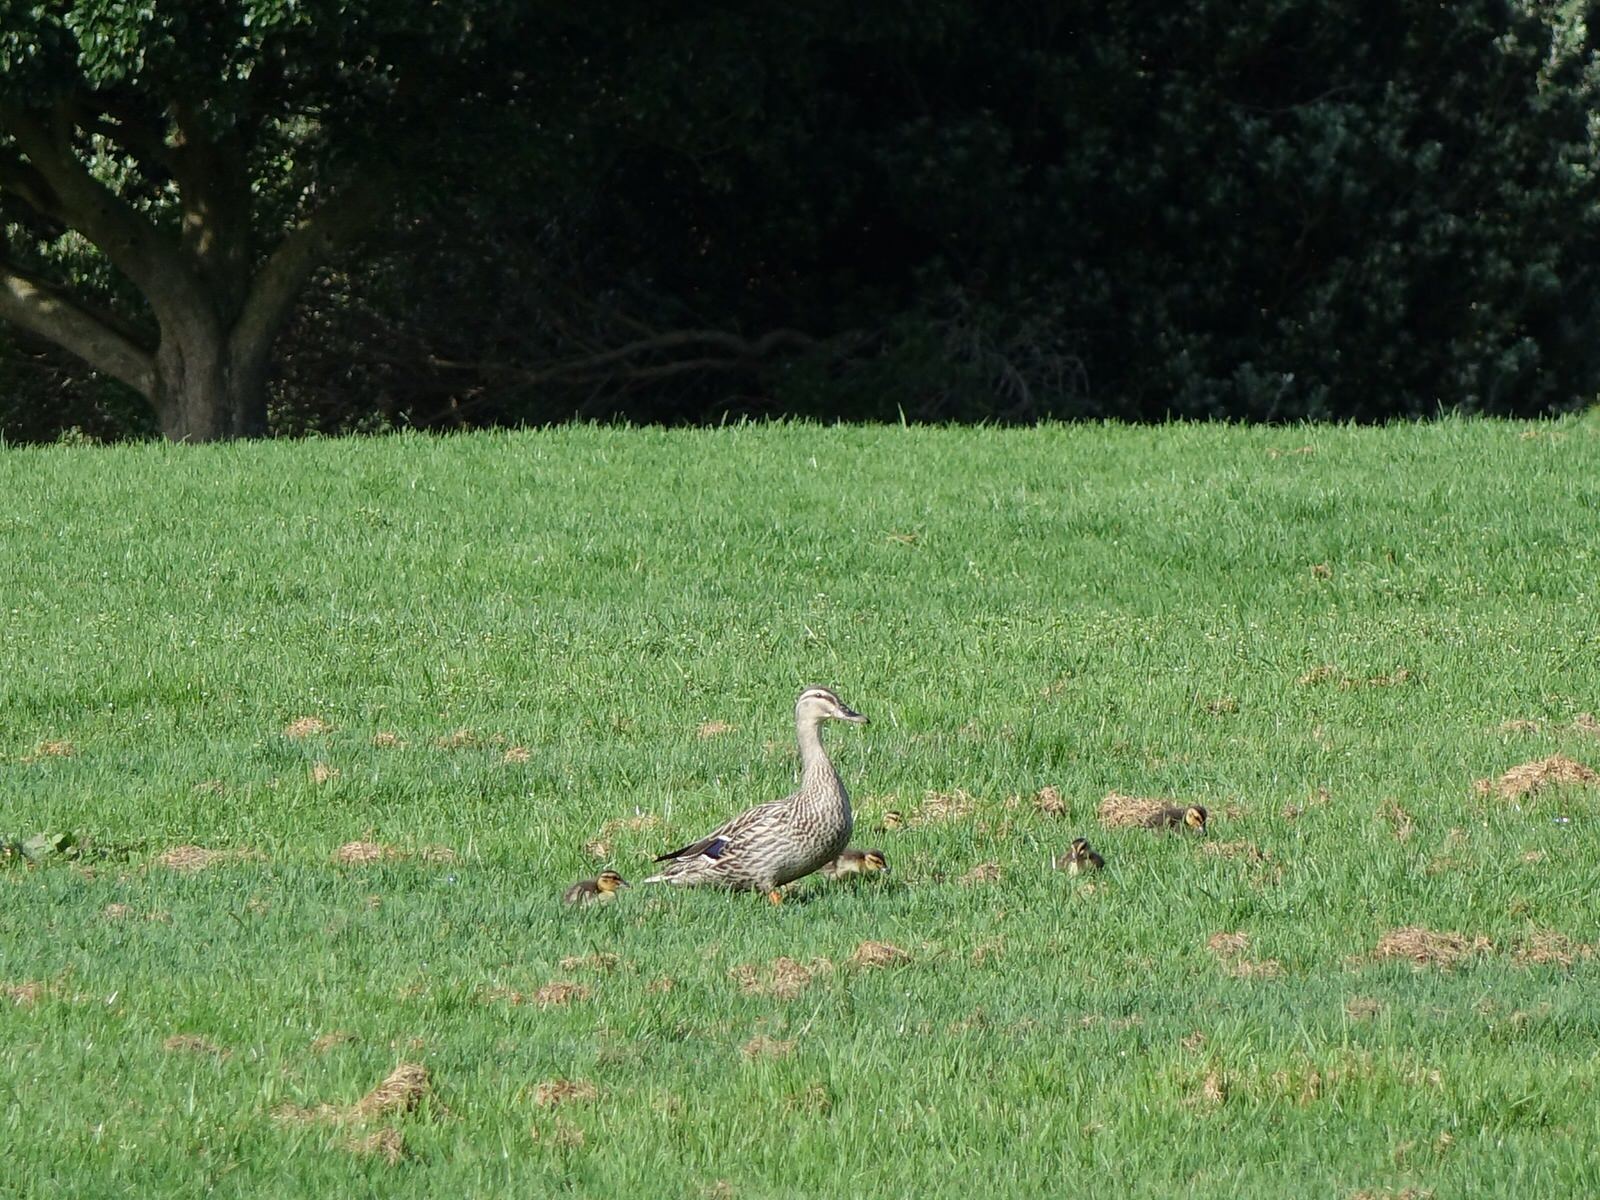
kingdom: Animalia
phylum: Chordata
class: Aves
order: Anseriformes
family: Anatidae
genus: Anas
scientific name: Anas platyrhynchos
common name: Mallard
